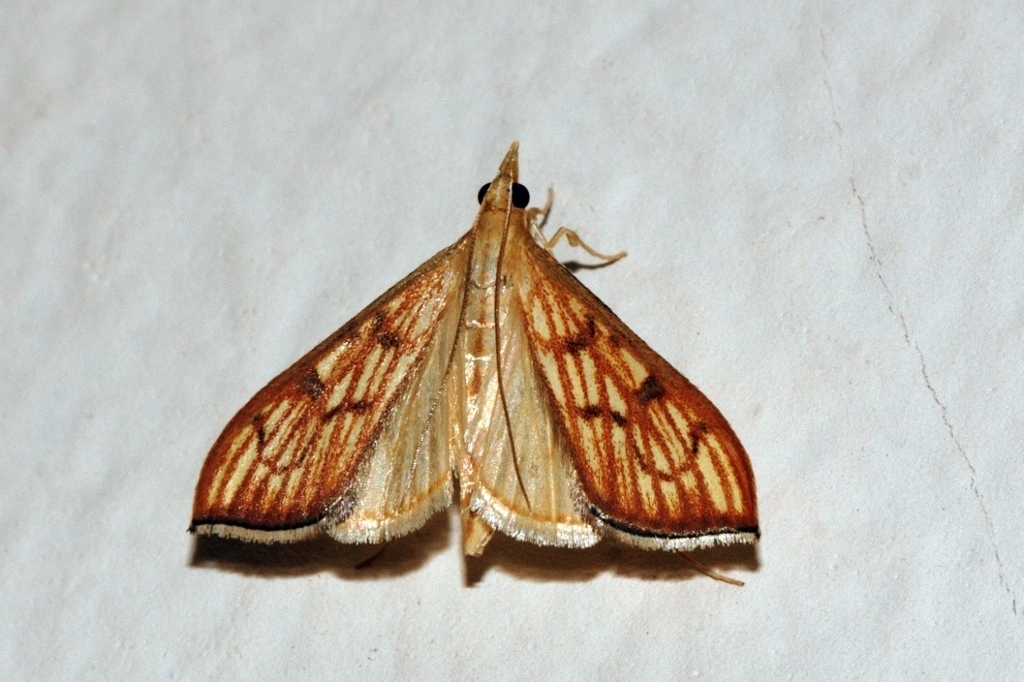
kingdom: Animalia
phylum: Arthropoda
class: Insecta
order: Lepidoptera
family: Crambidae
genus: Antigastra
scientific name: Antigastra catalaunalis
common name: Spanish dot
